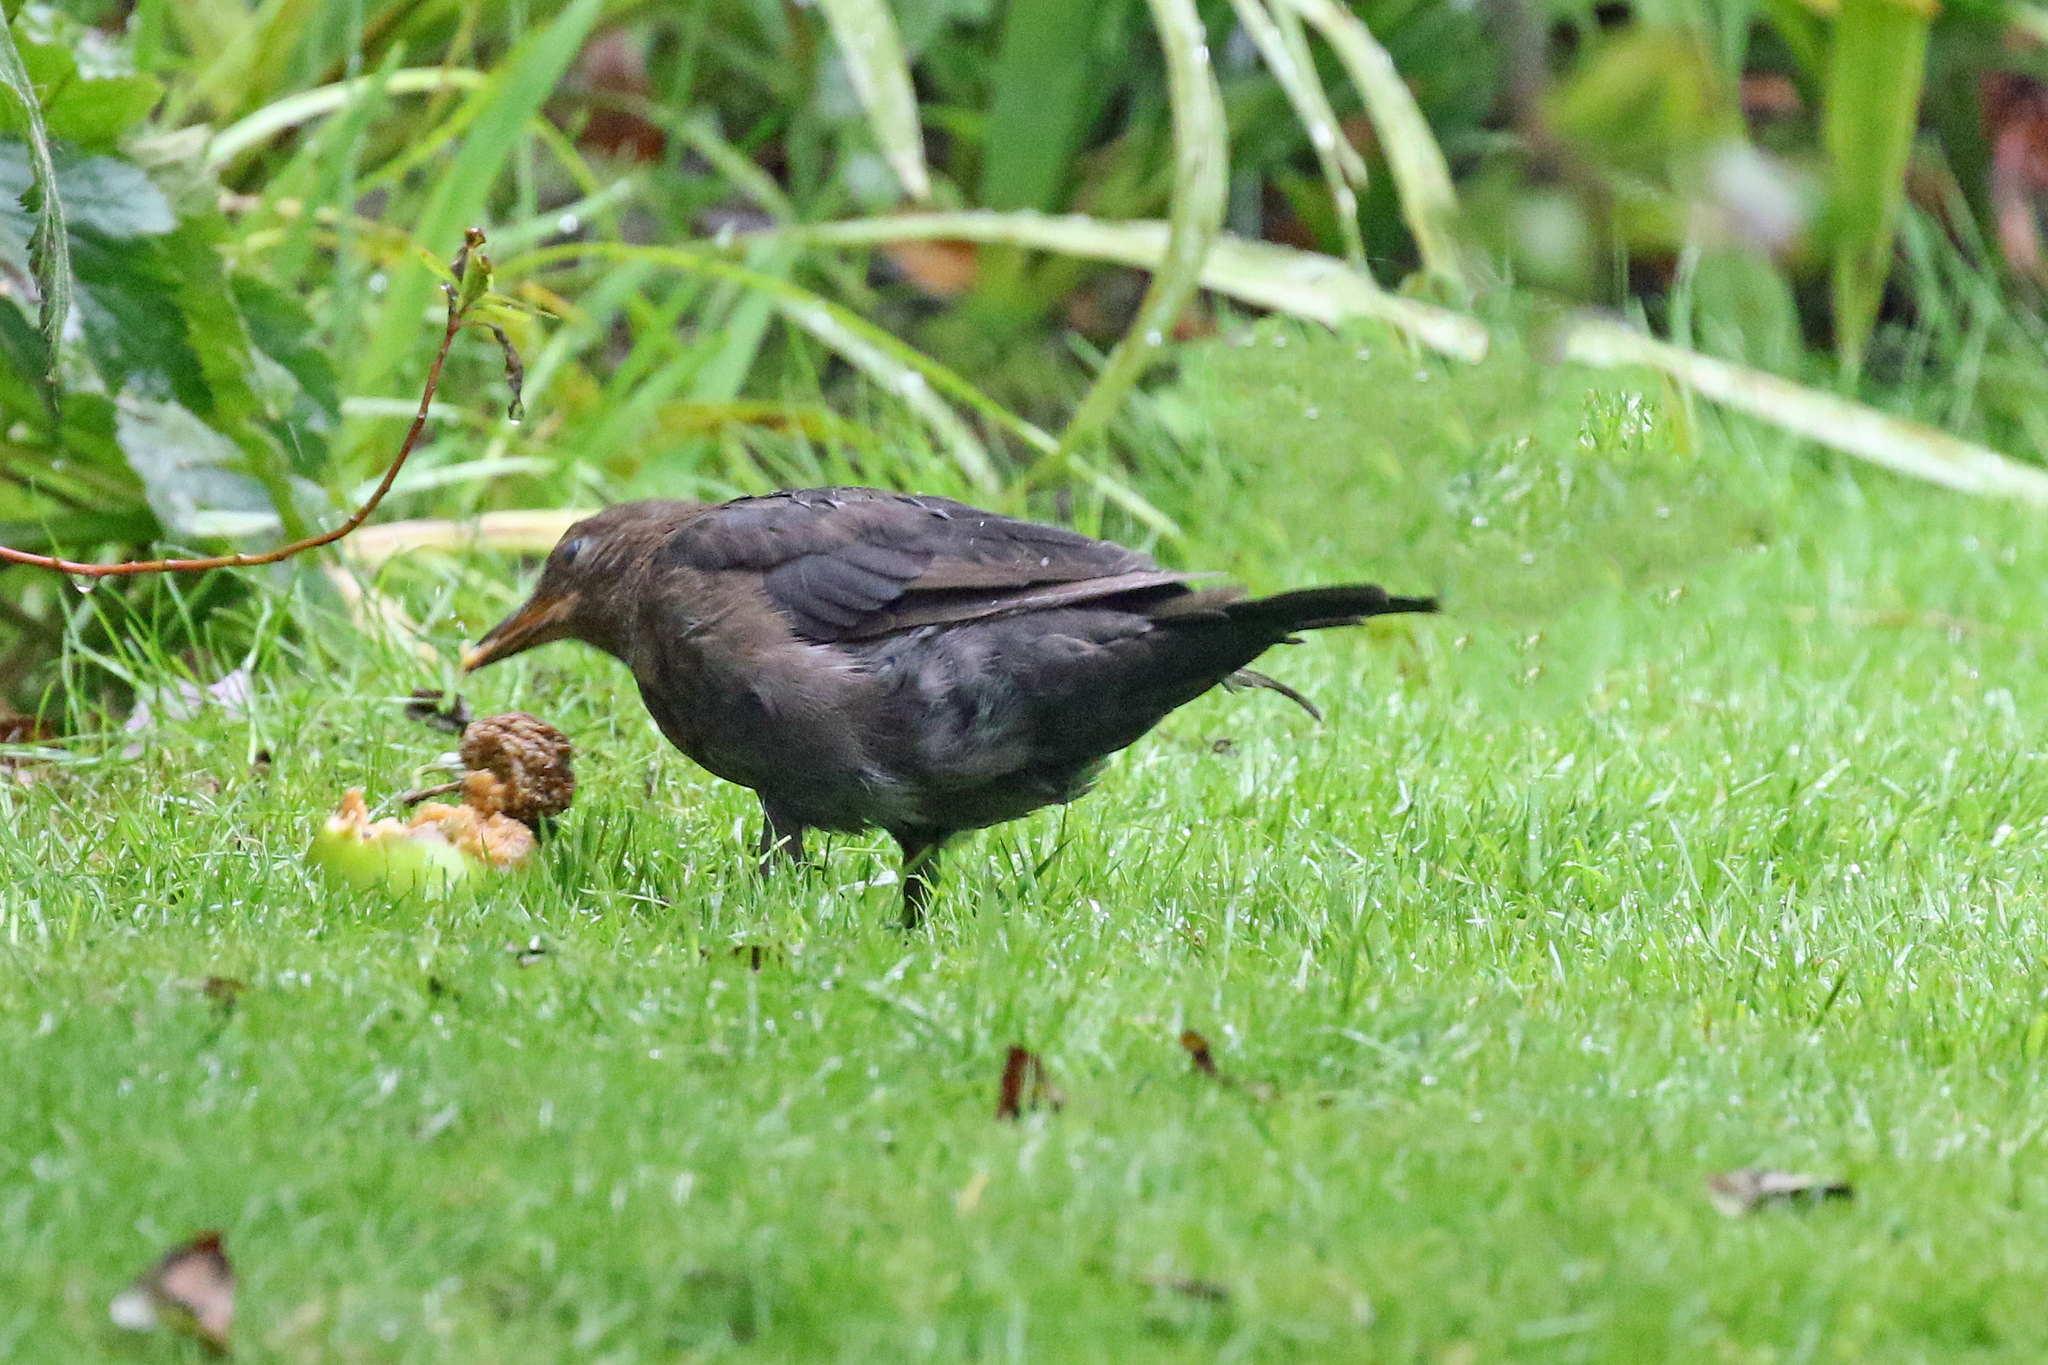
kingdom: Animalia
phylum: Chordata
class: Aves
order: Passeriformes
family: Turdidae
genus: Turdus
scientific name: Turdus merula
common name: Common blackbird
